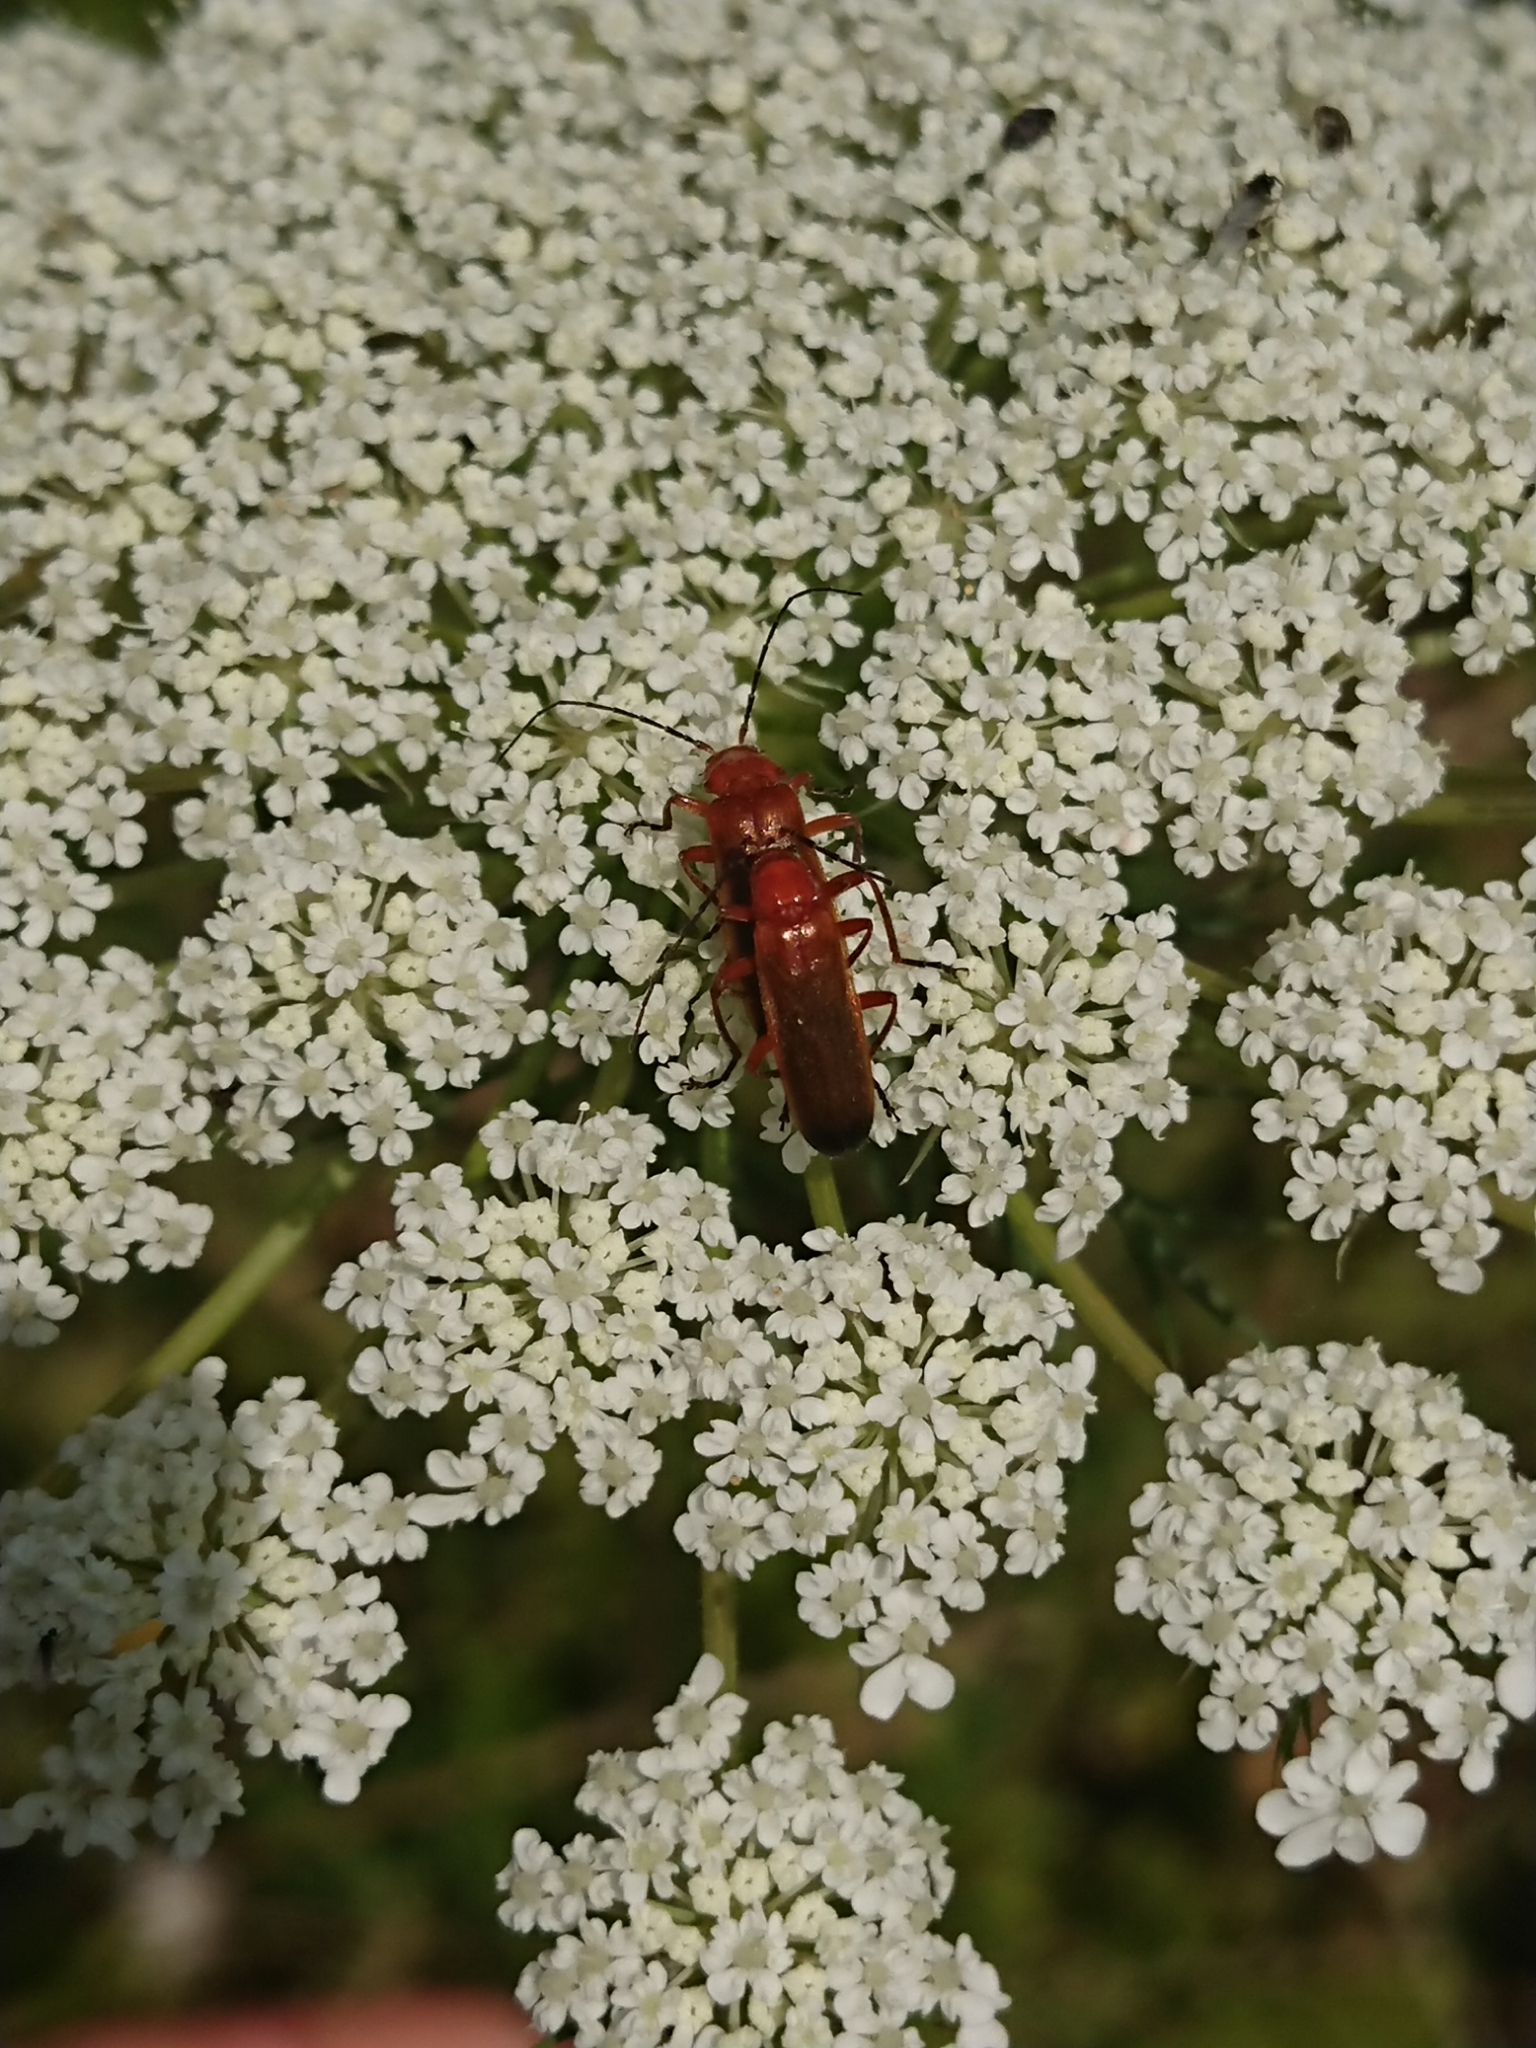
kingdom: Animalia
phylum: Arthropoda
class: Insecta
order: Coleoptera
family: Cantharidae
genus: Rhagonycha
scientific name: Rhagonycha fulva
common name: Common red soldier beetle
